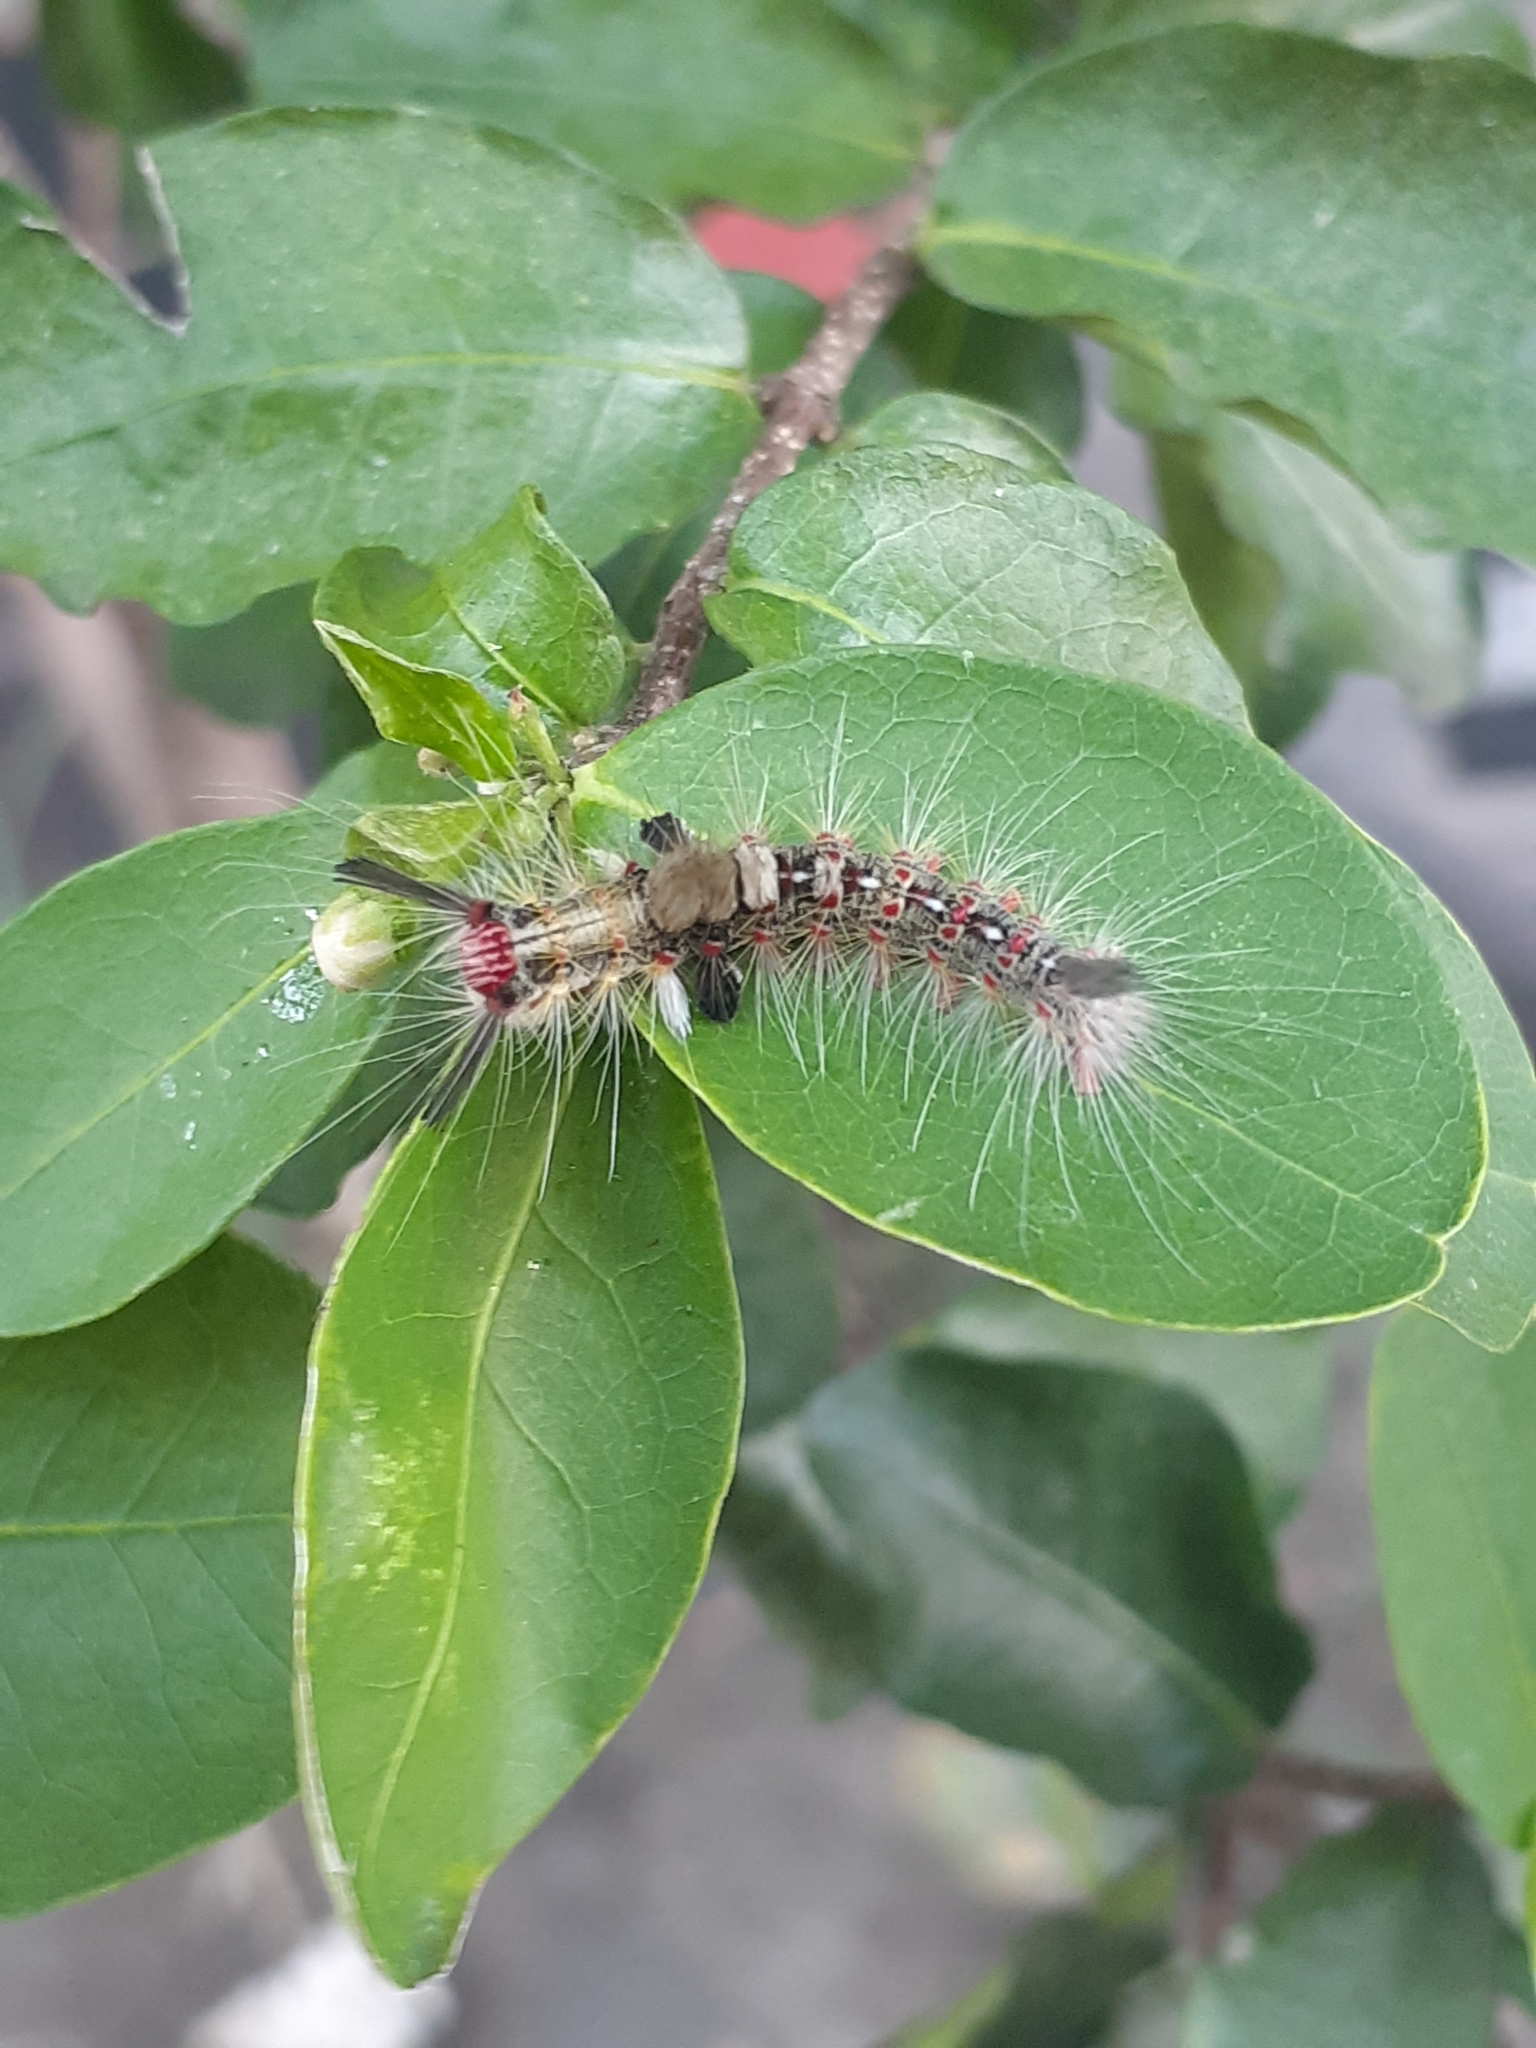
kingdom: Animalia
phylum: Arthropoda
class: Insecta
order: Lepidoptera
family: Erebidae
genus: Olene
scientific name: Olene mendosa
